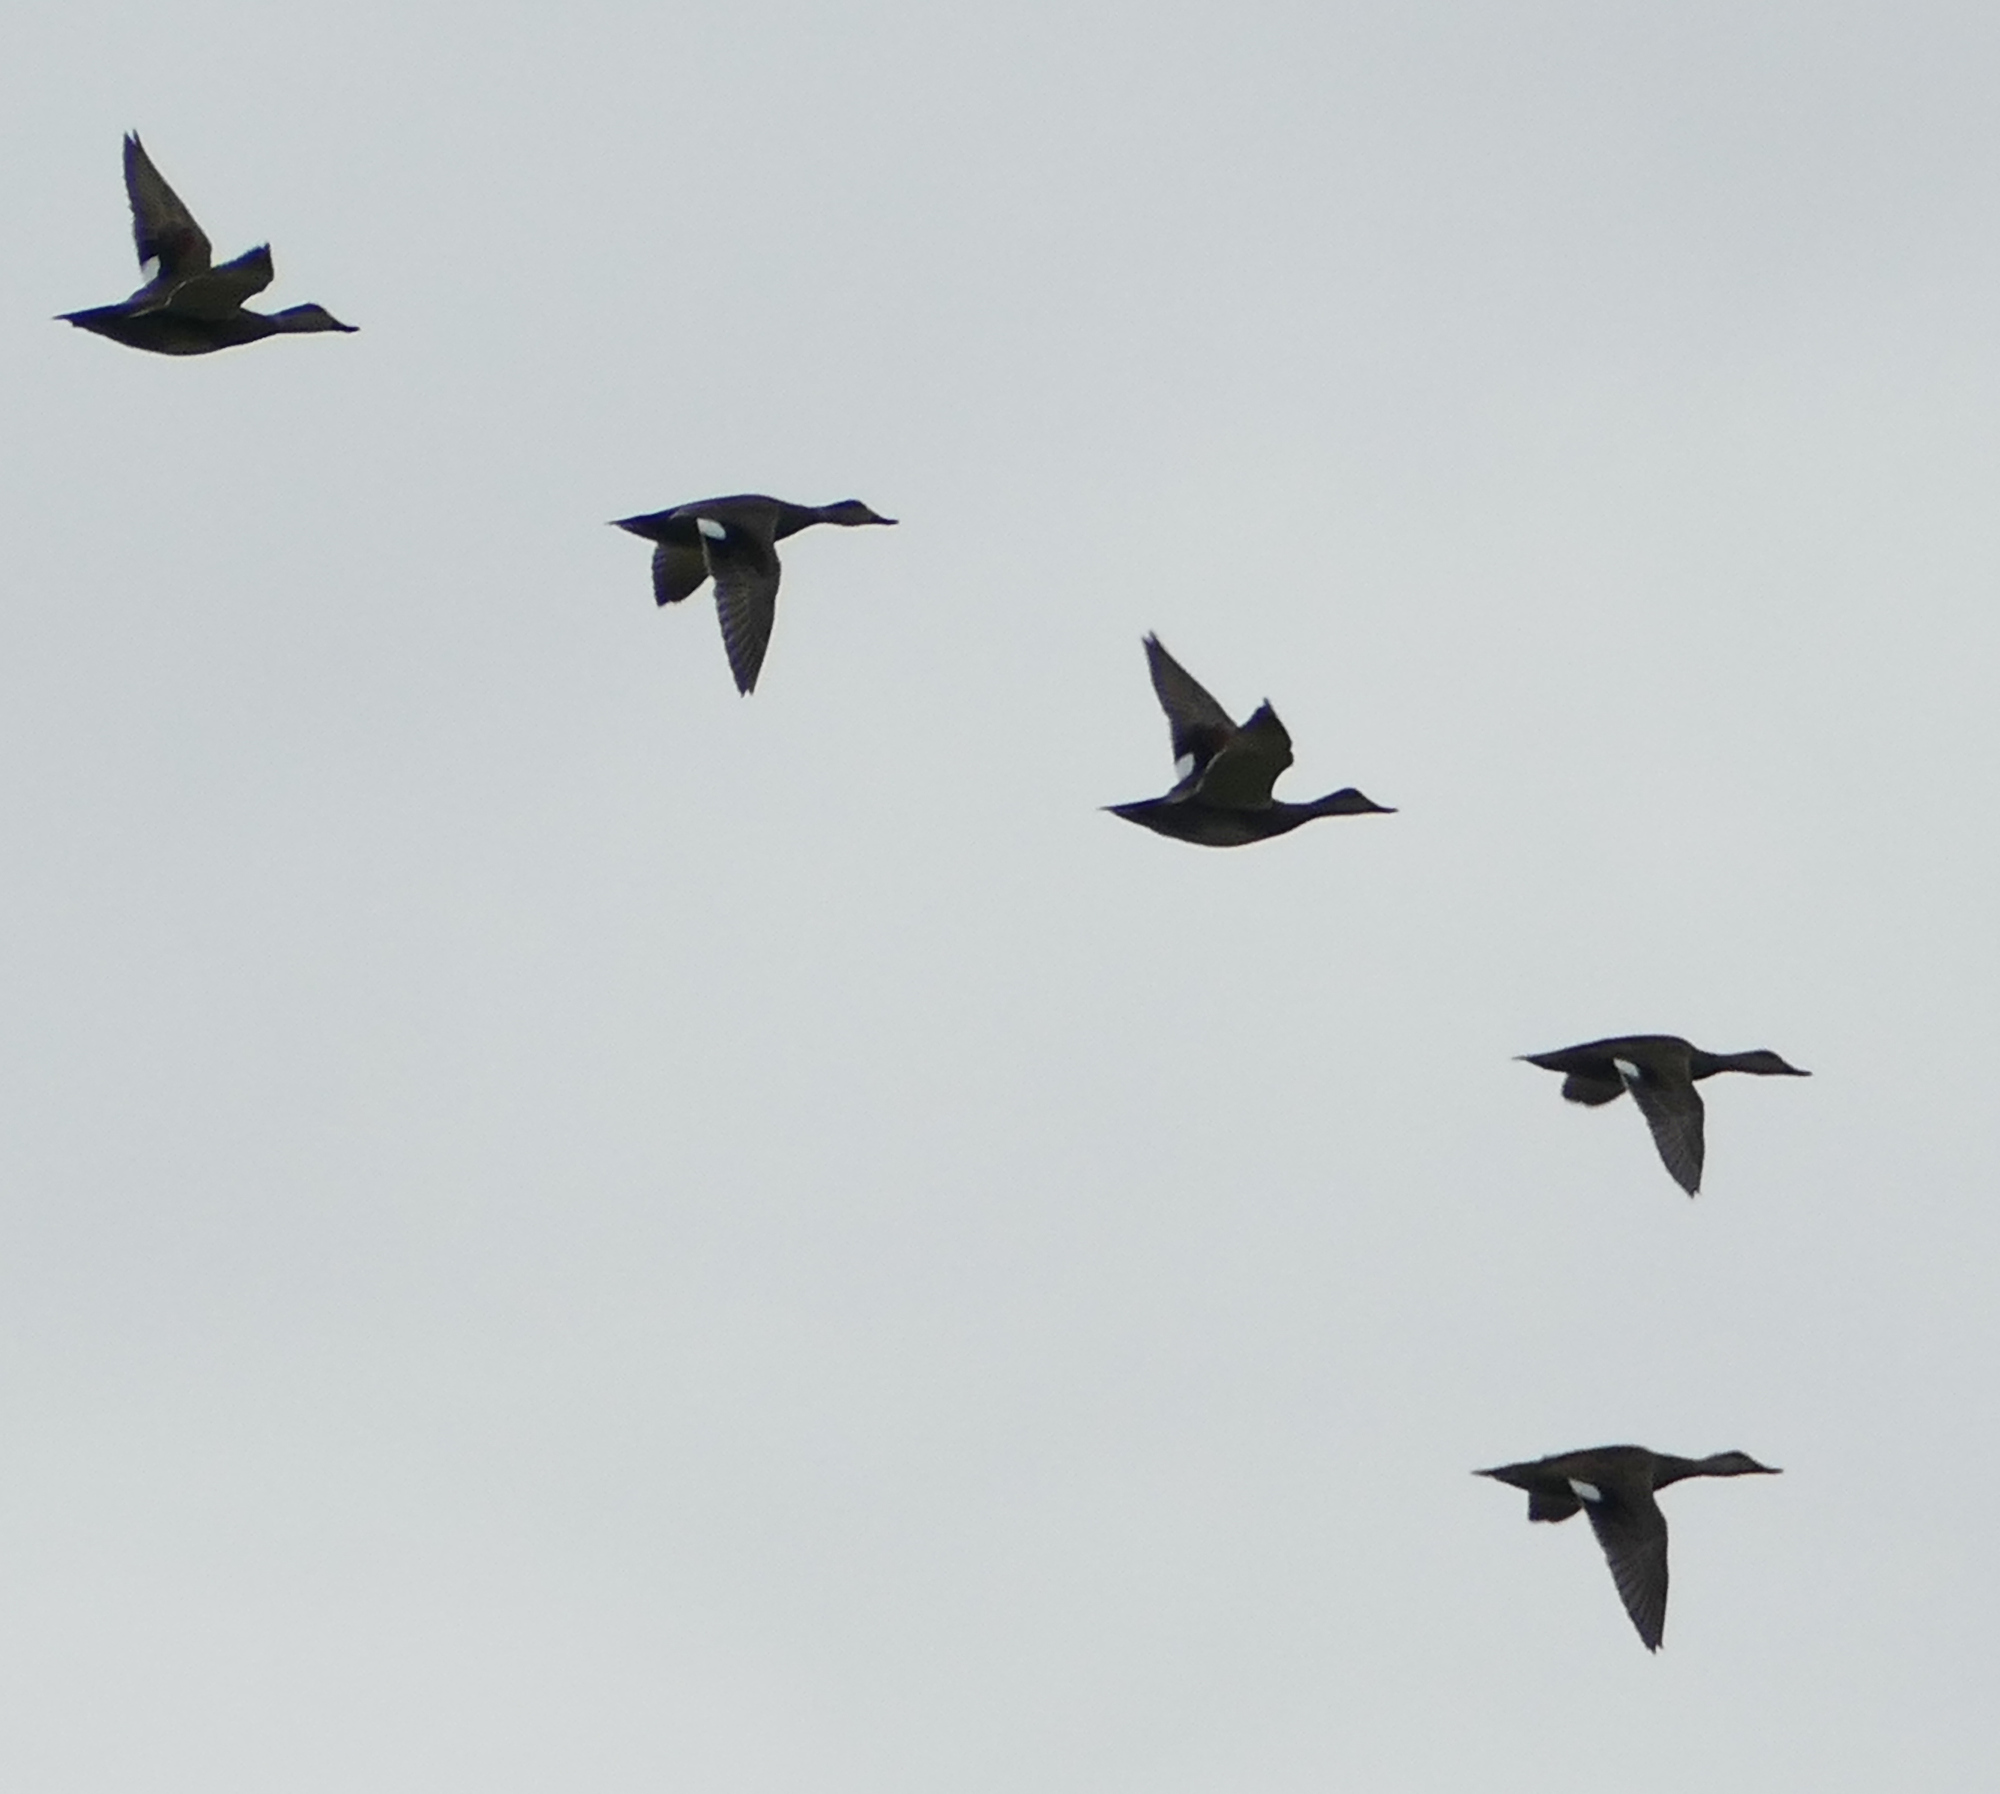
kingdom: Animalia
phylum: Chordata
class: Aves
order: Anseriformes
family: Anatidae
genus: Mareca
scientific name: Mareca strepera
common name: Gadwall
